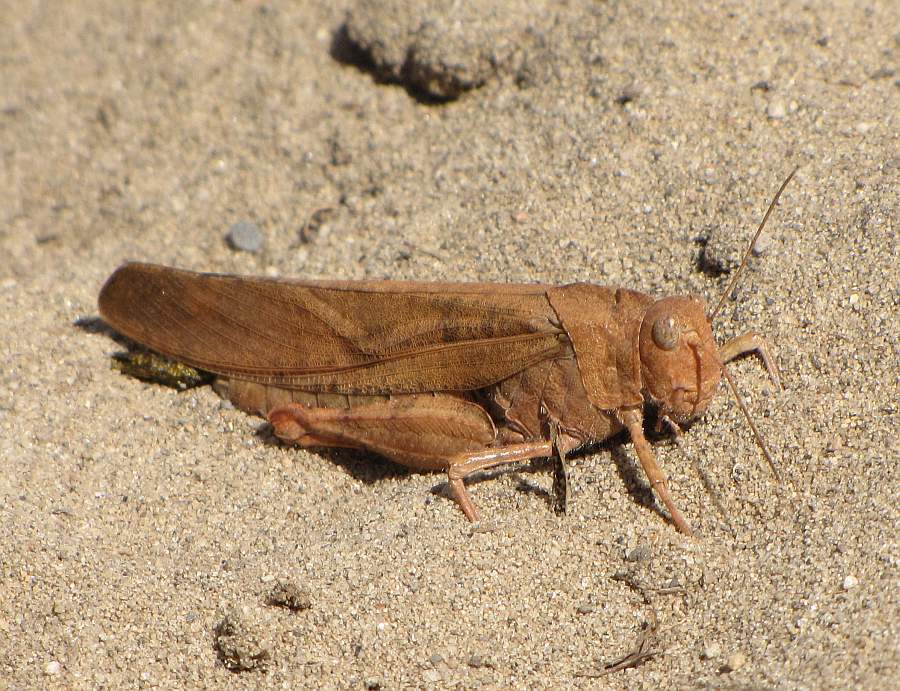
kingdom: Animalia
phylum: Arthropoda
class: Insecta
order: Orthoptera
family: Acrididae
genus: Dissosteira
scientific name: Dissosteira carolina
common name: Carolina grasshopper
